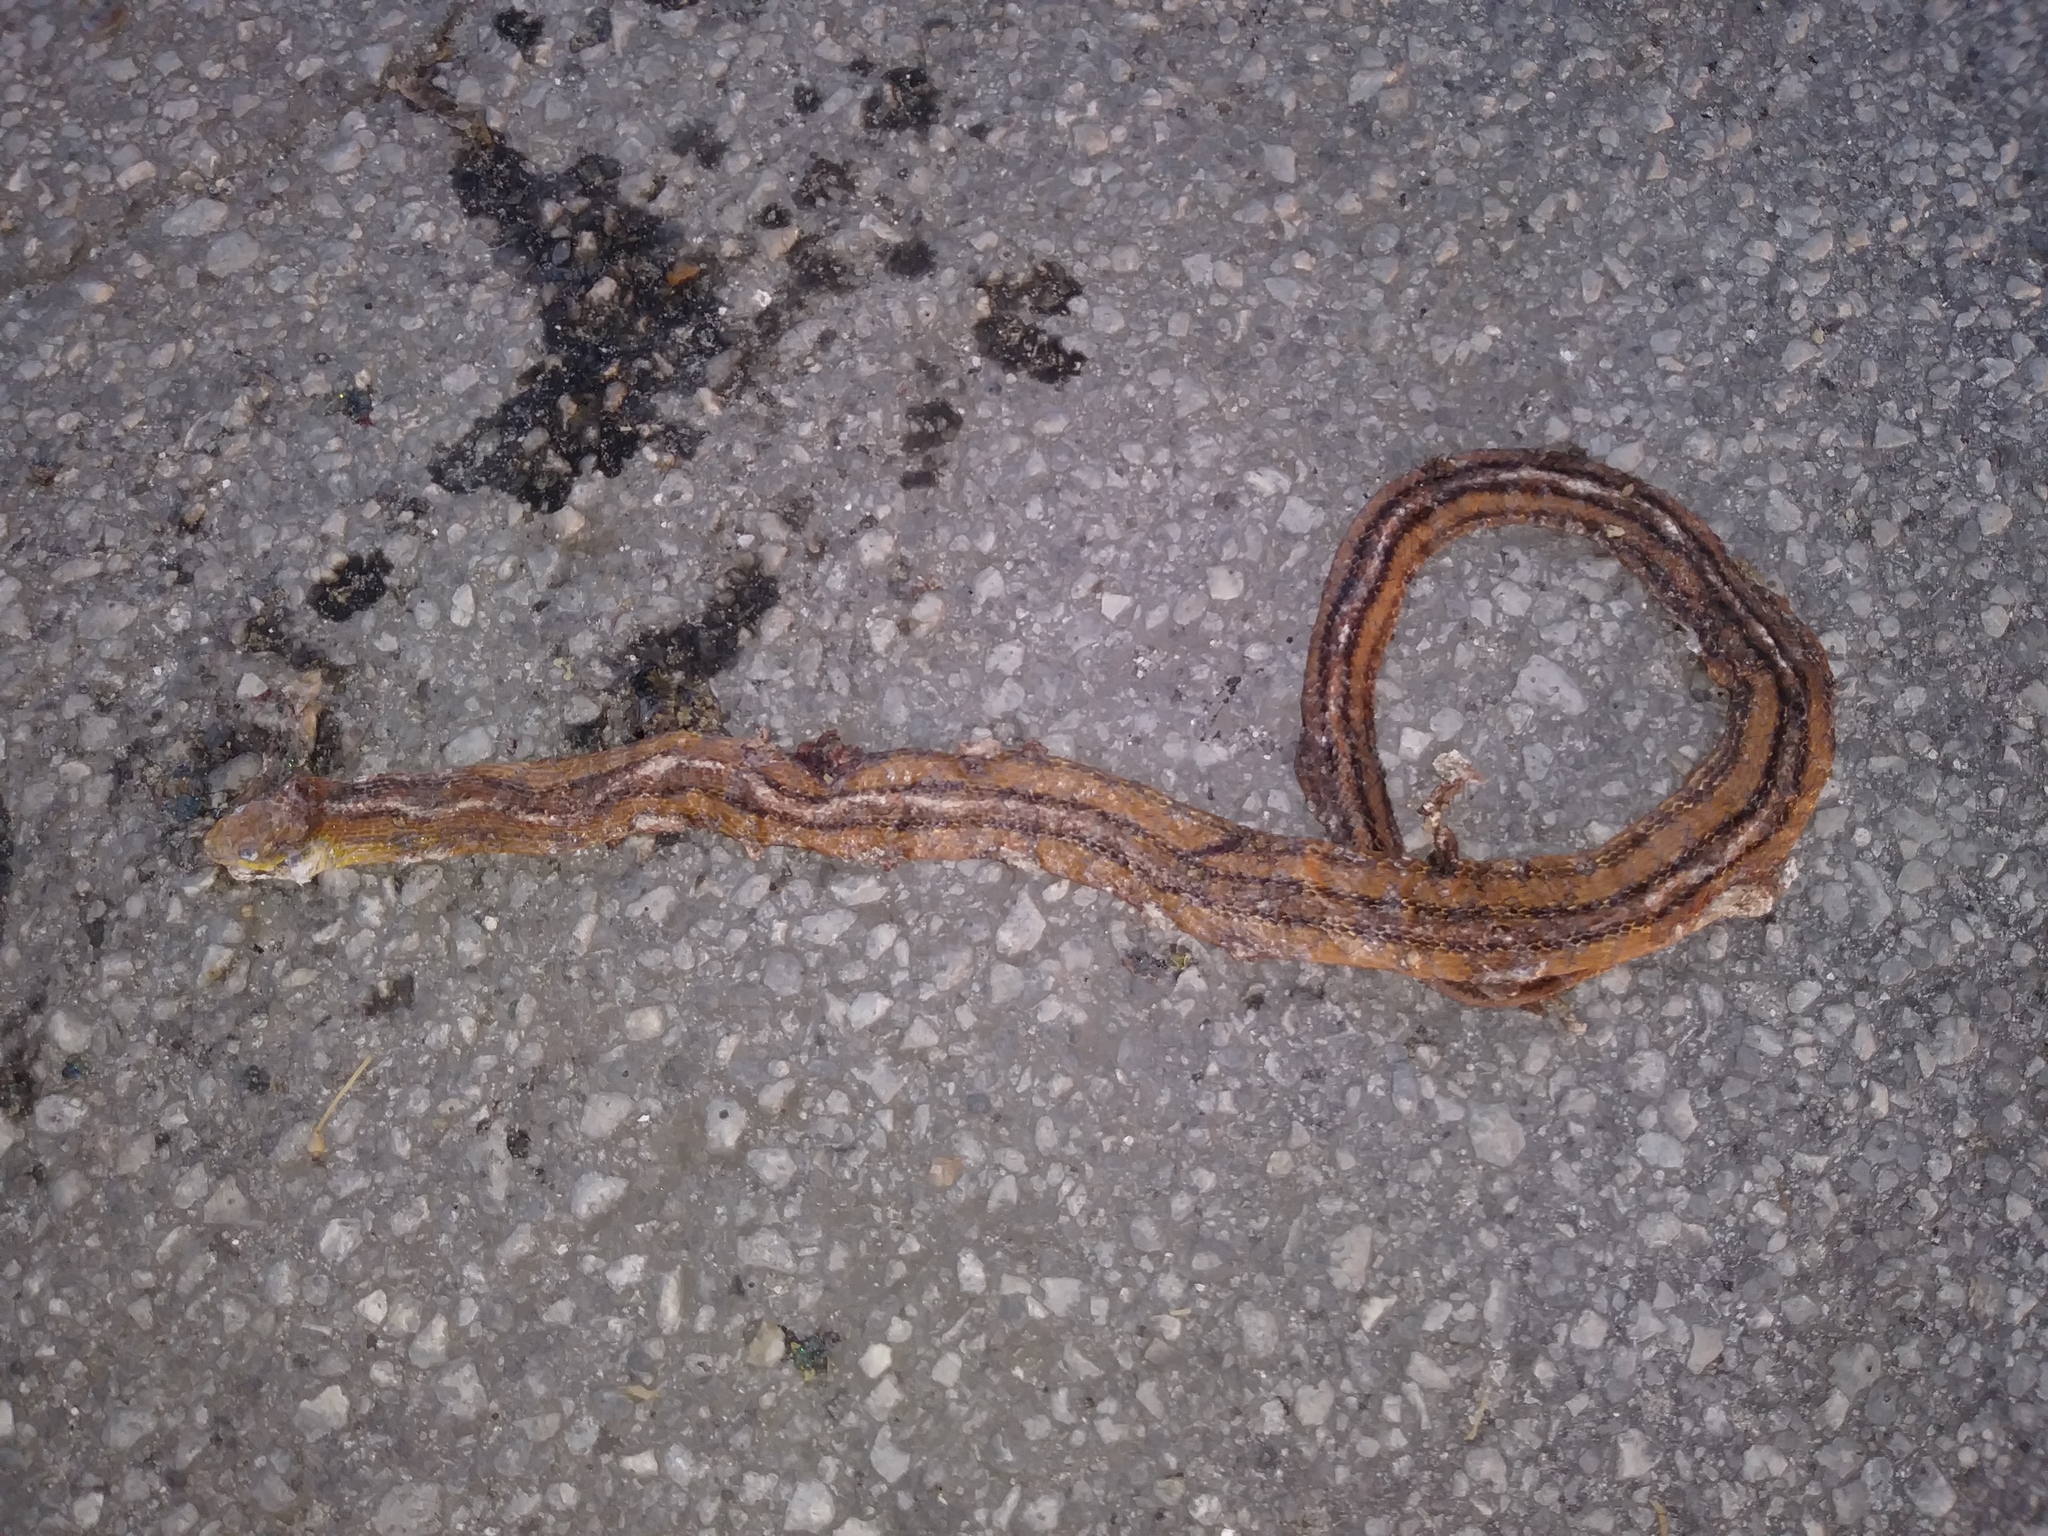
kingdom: Animalia
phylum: Chordata
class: Squamata
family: Colubridae
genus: Pantherophis
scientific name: Pantherophis alleghaniensis
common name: Eastern rat snake
